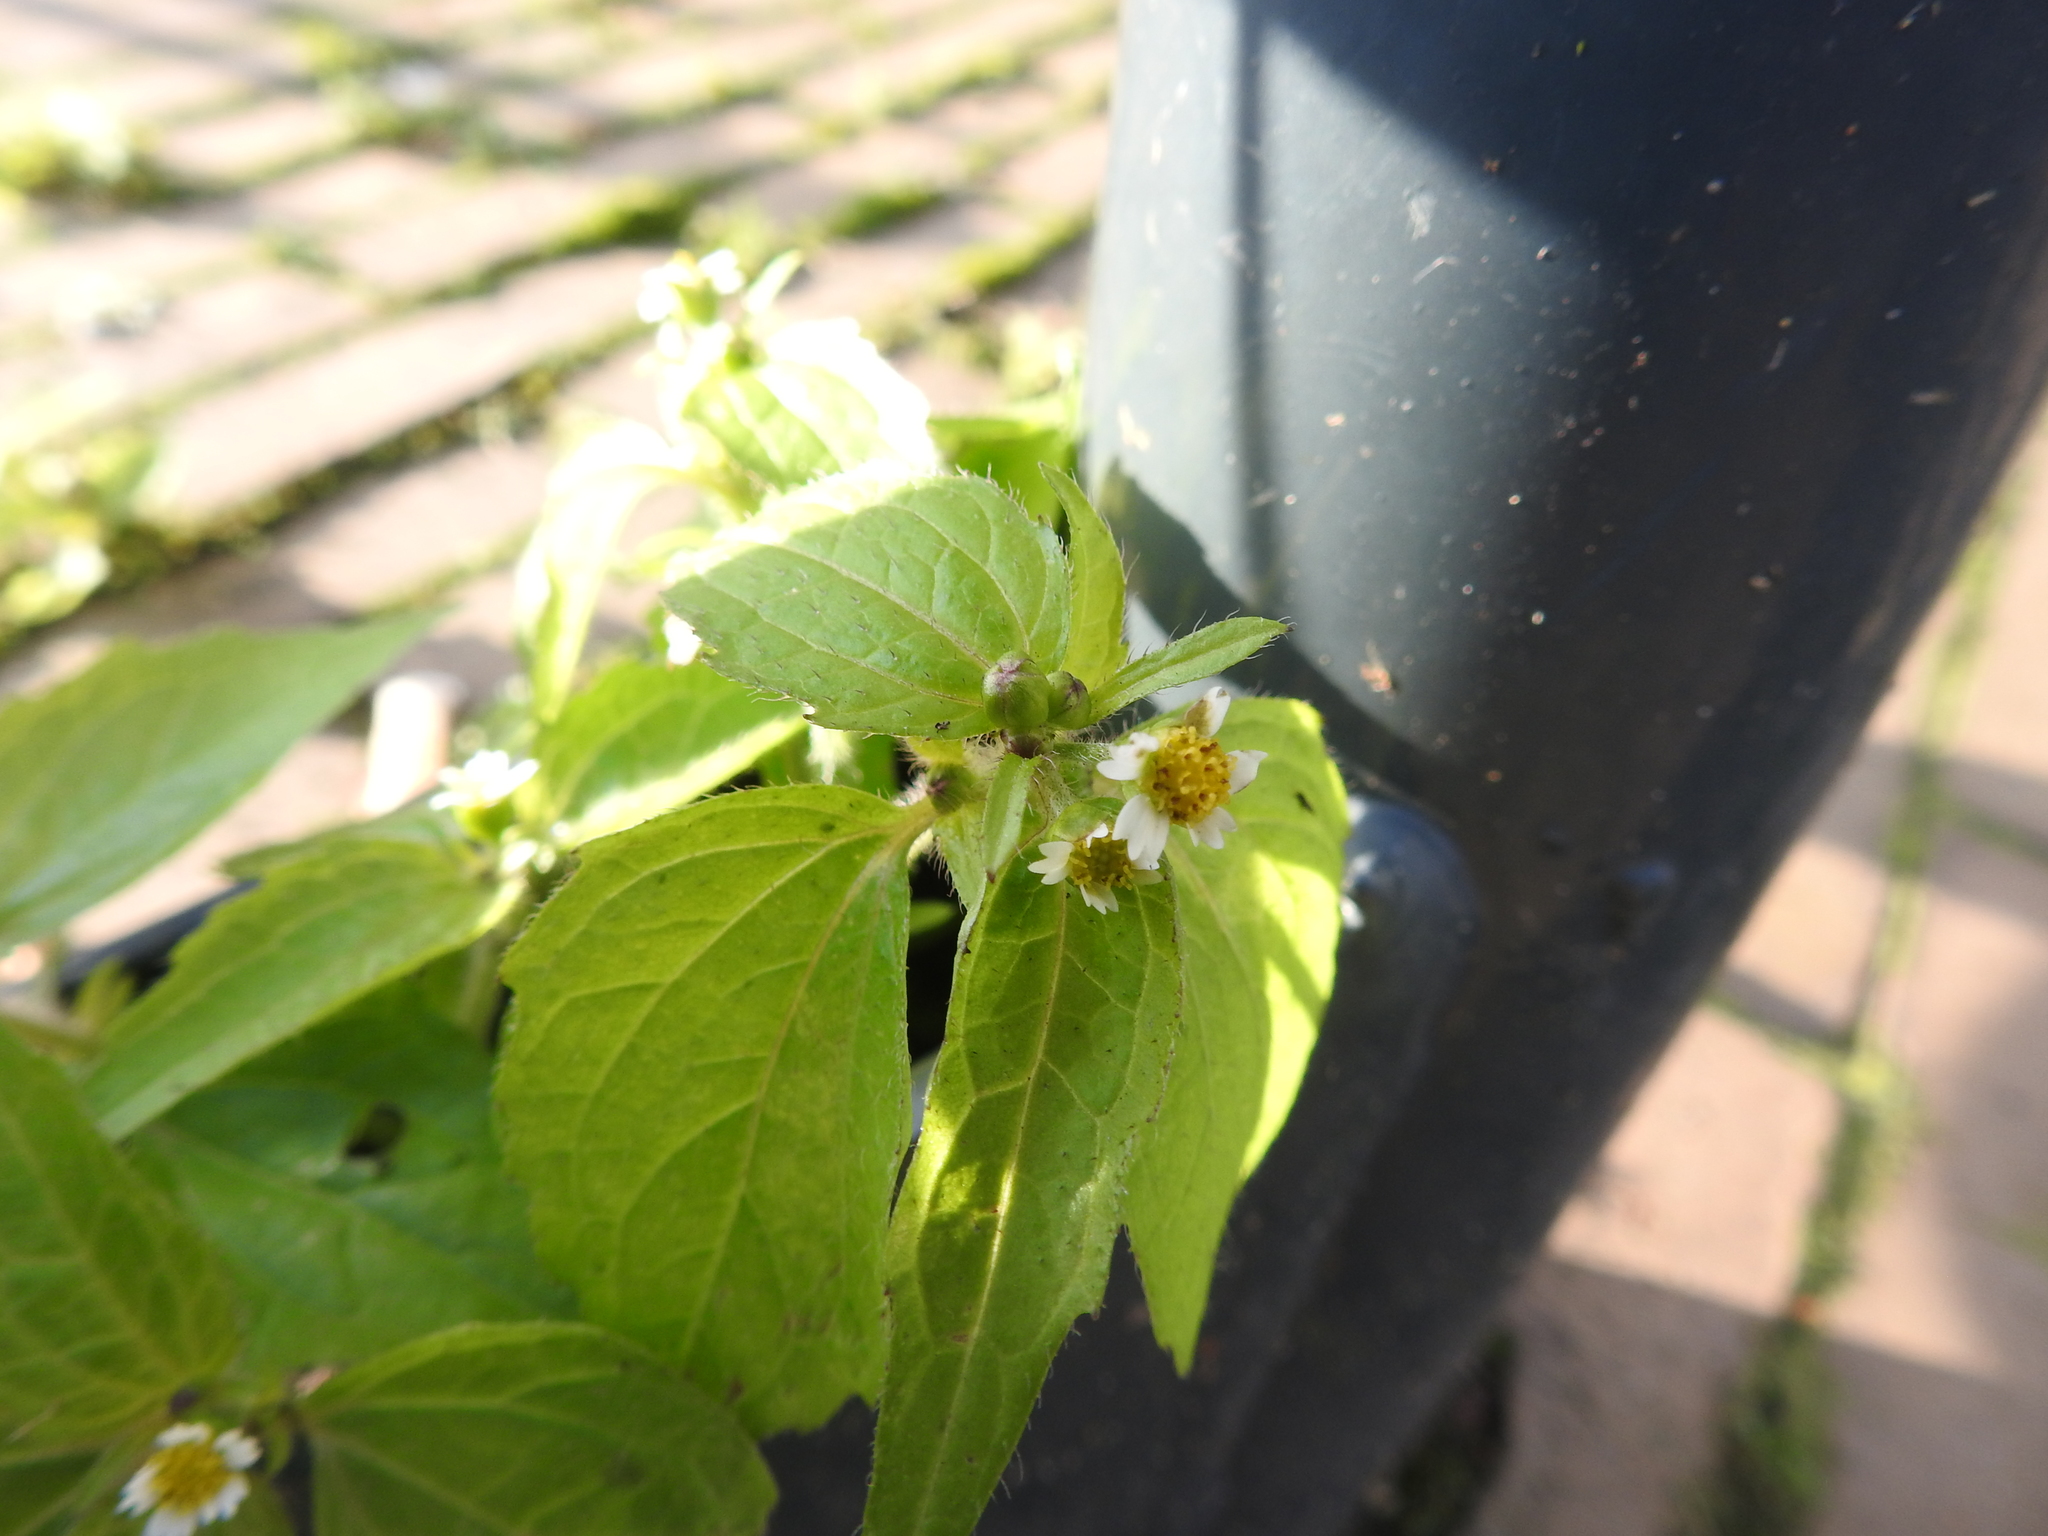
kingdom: Plantae
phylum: Tracheophyta
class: Magnoliopsida
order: Asterales
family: Asteraceae
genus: Galinsoga
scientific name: Galinsoga quadriradiata
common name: Shaggy soldier
